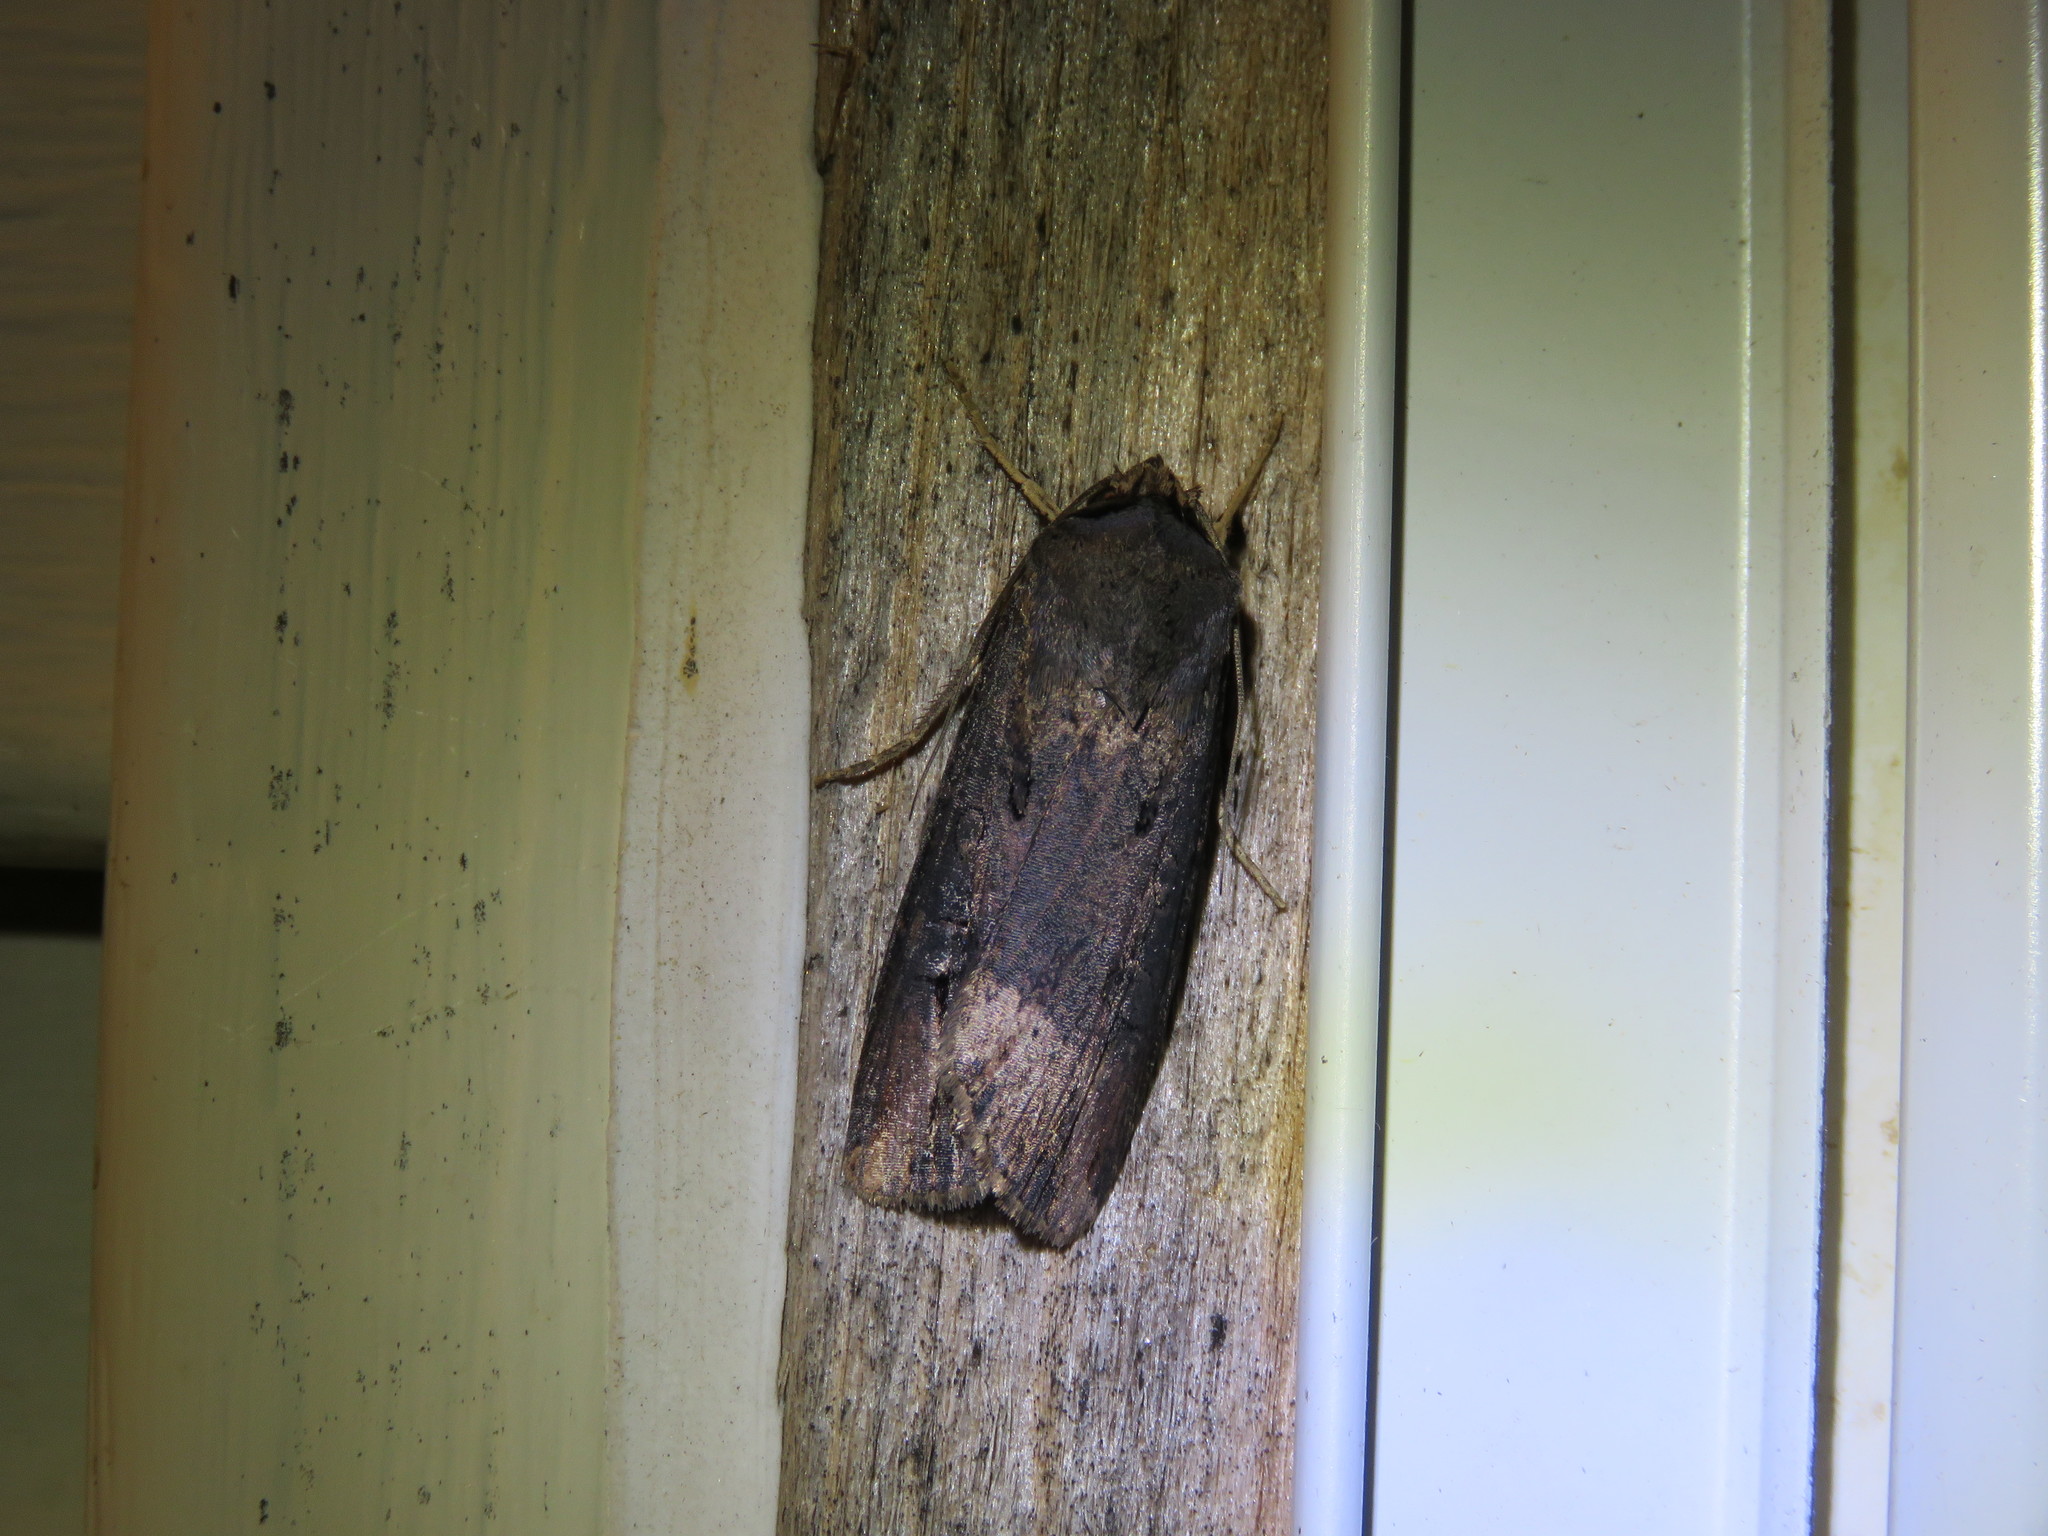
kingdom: Animalia
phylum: Arthropoda
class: Insecta
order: Lepidoptera
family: Noctuidae
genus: Agrotis
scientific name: Agrotis ipsilon
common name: Dark sword-grass
